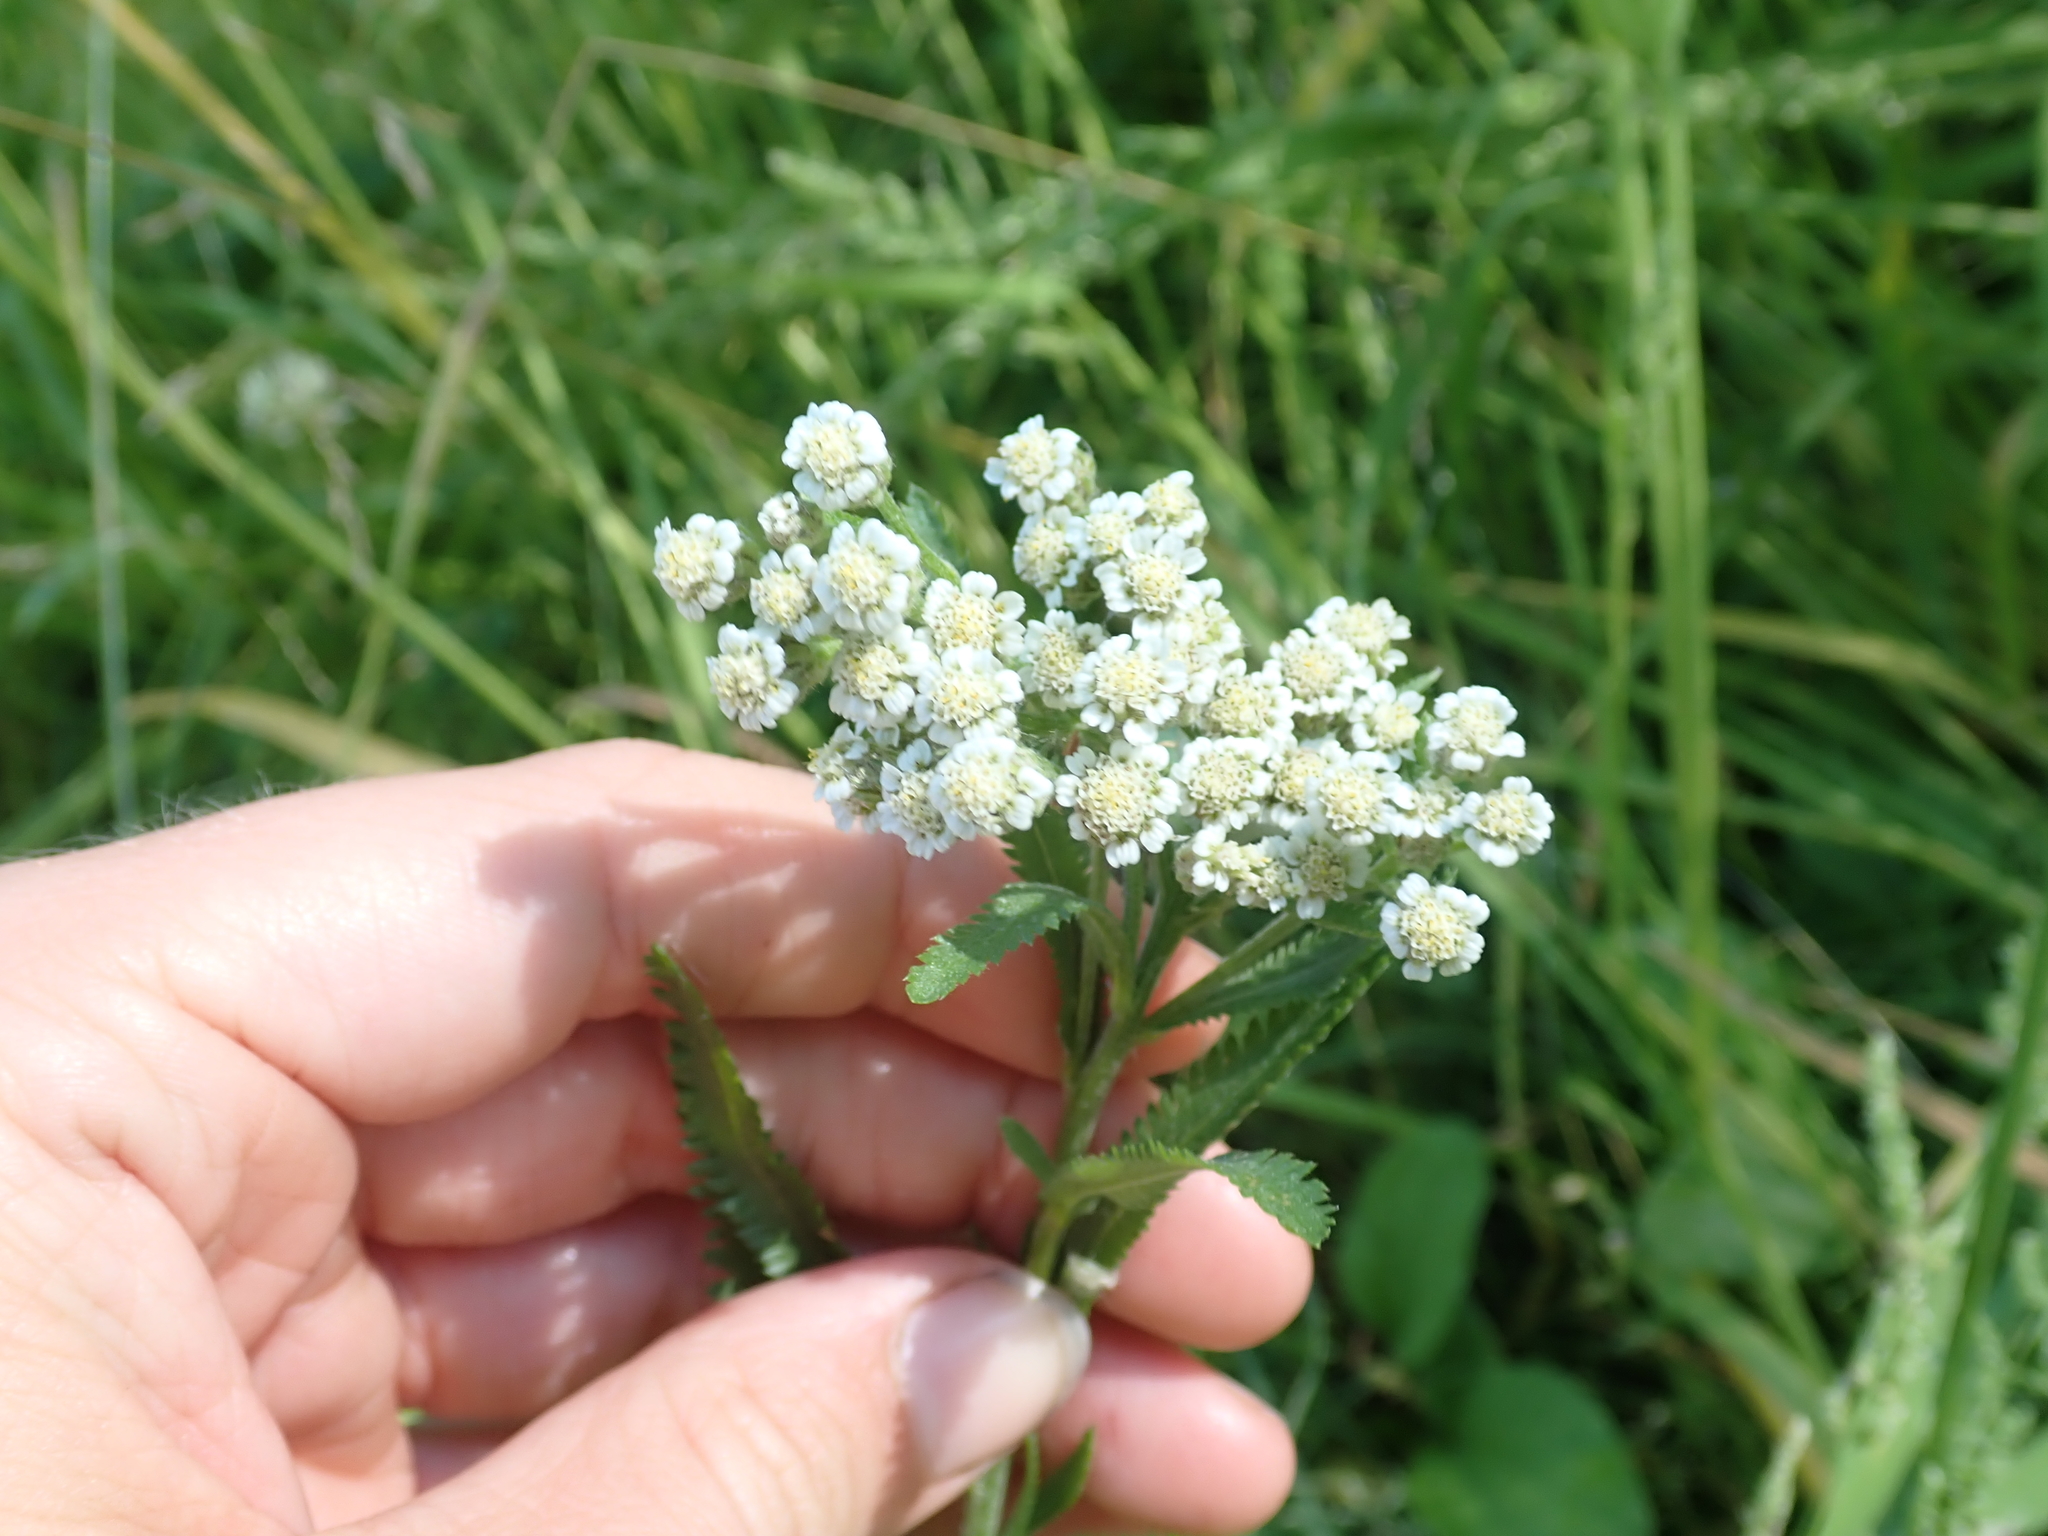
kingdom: Plantae
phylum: Tracheophyta
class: Magnoliopsida
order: Asterales
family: Asteraceae
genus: Achillea
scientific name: Achillea alpina
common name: Siberian yarrow
